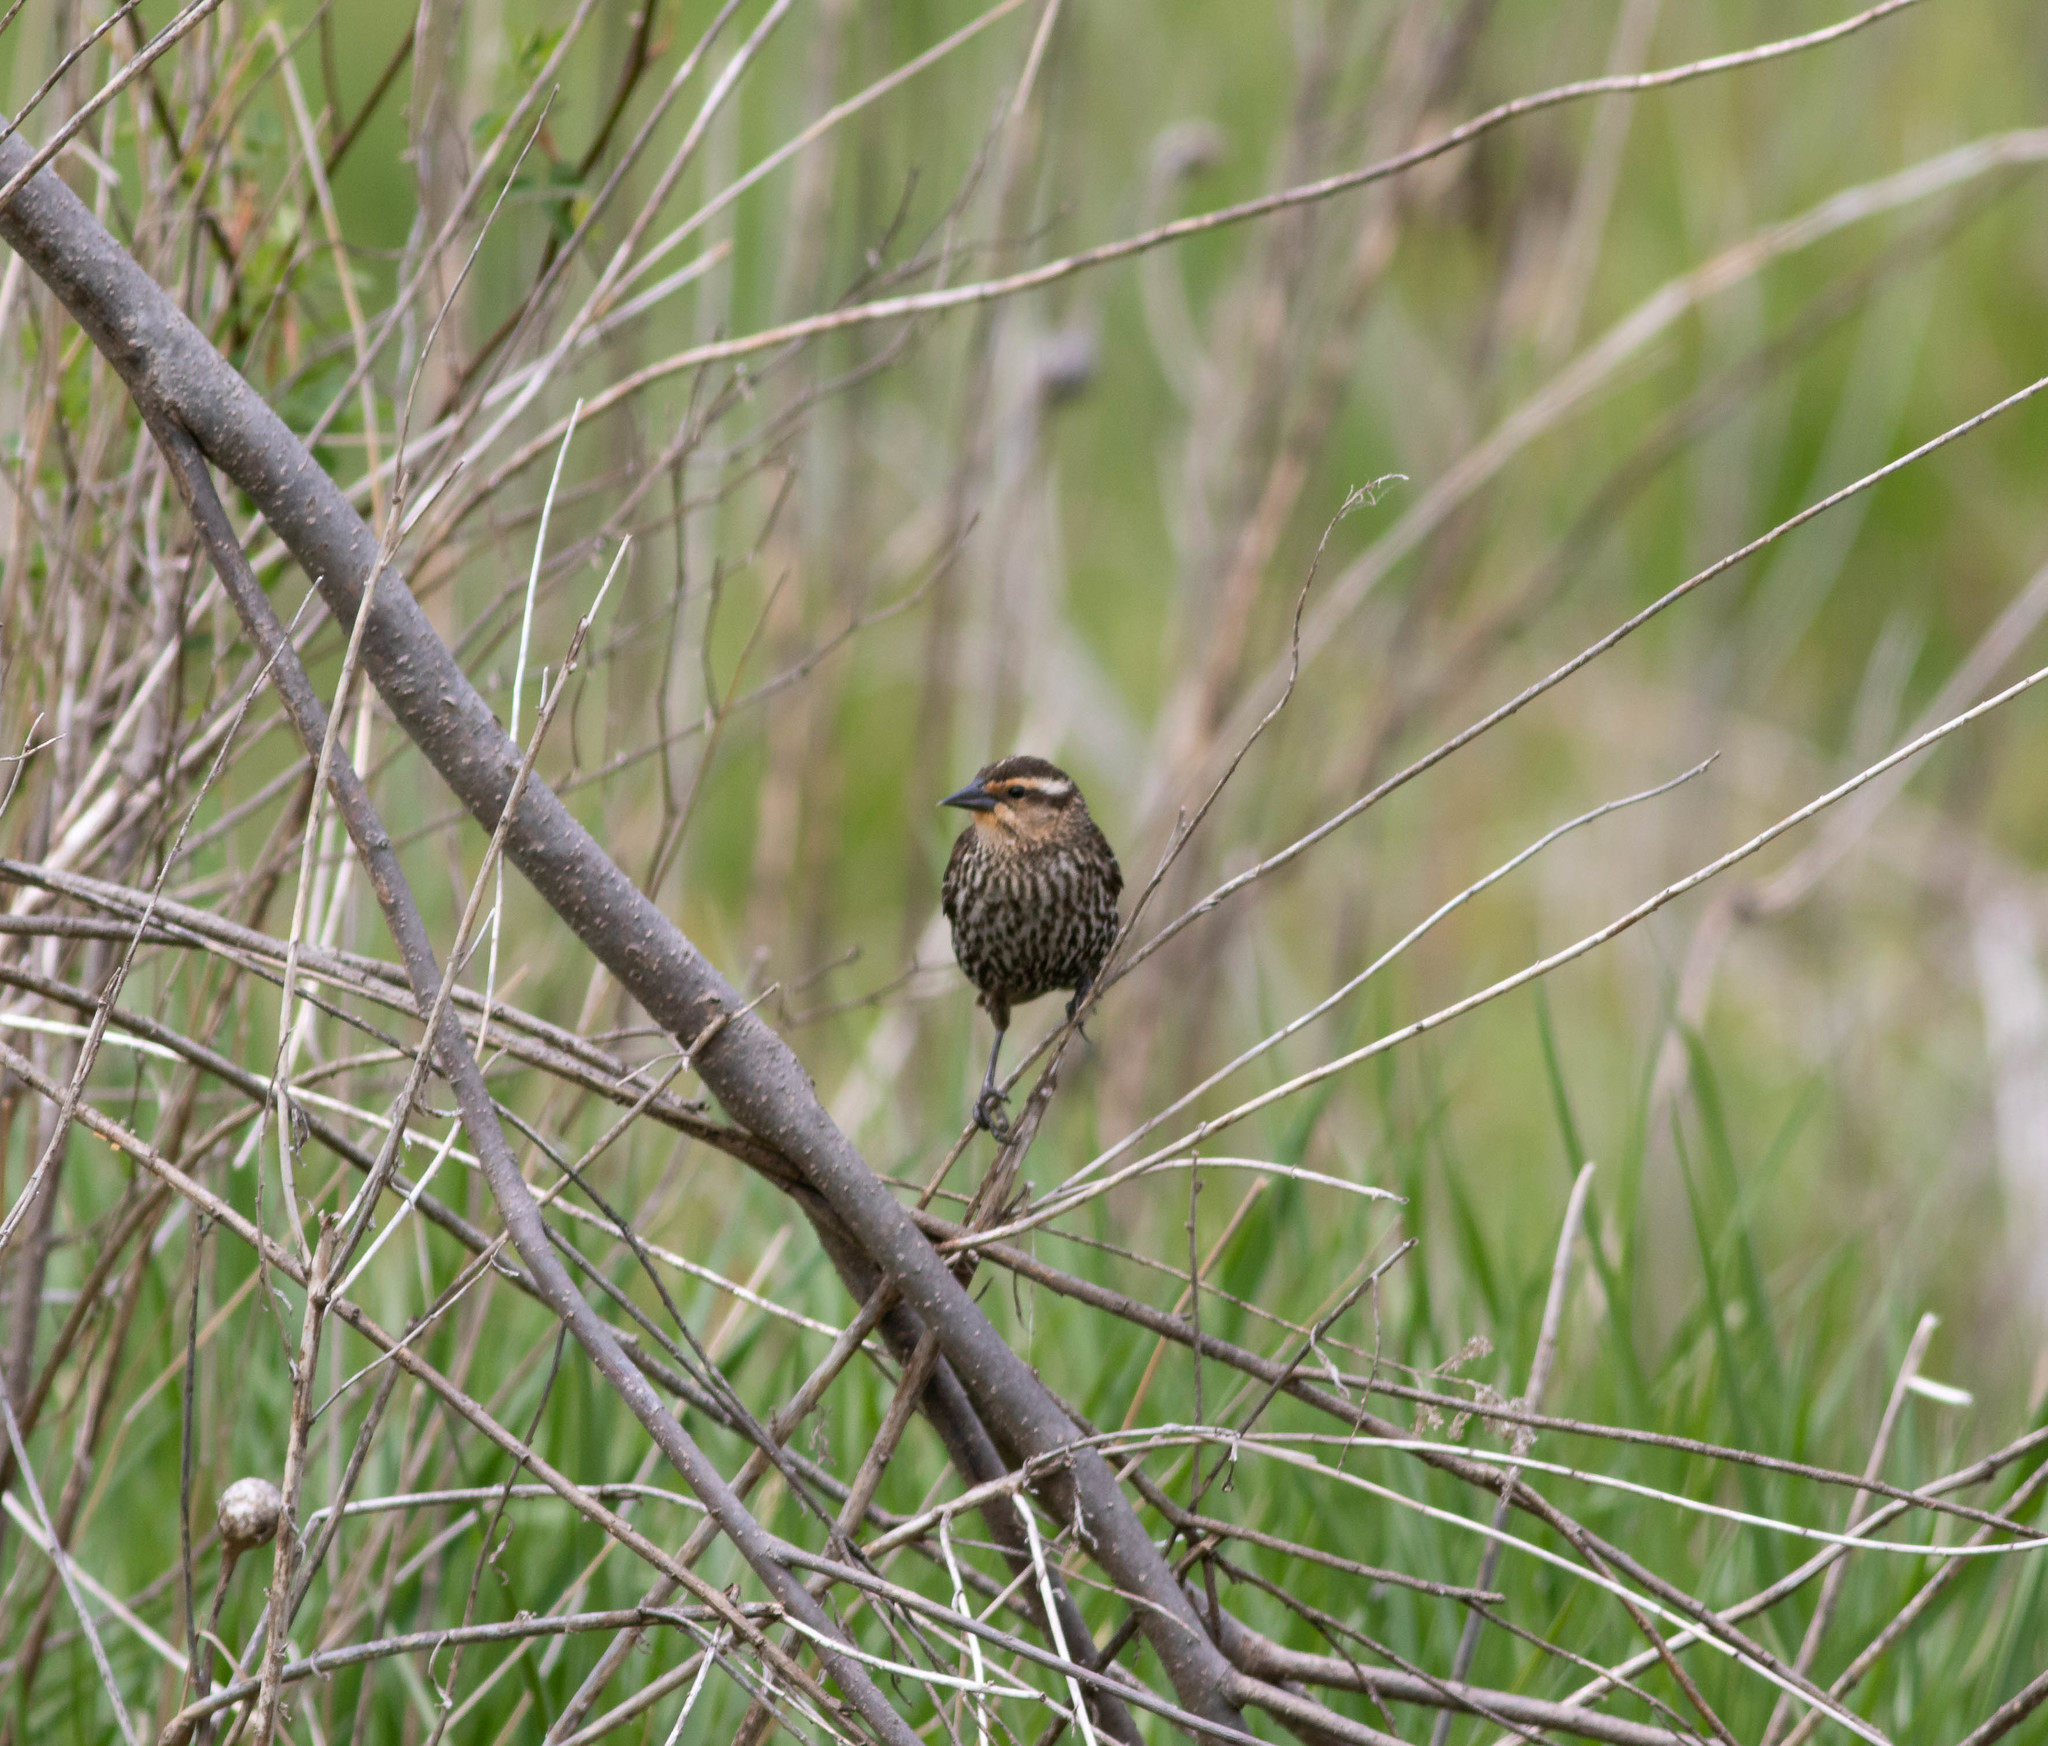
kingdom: Animalia
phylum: Chordata
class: Aves
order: Passeriformes
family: Icteridae
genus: Agelaius
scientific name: Agelaius phoeniceus
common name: Red-winged blackbird
